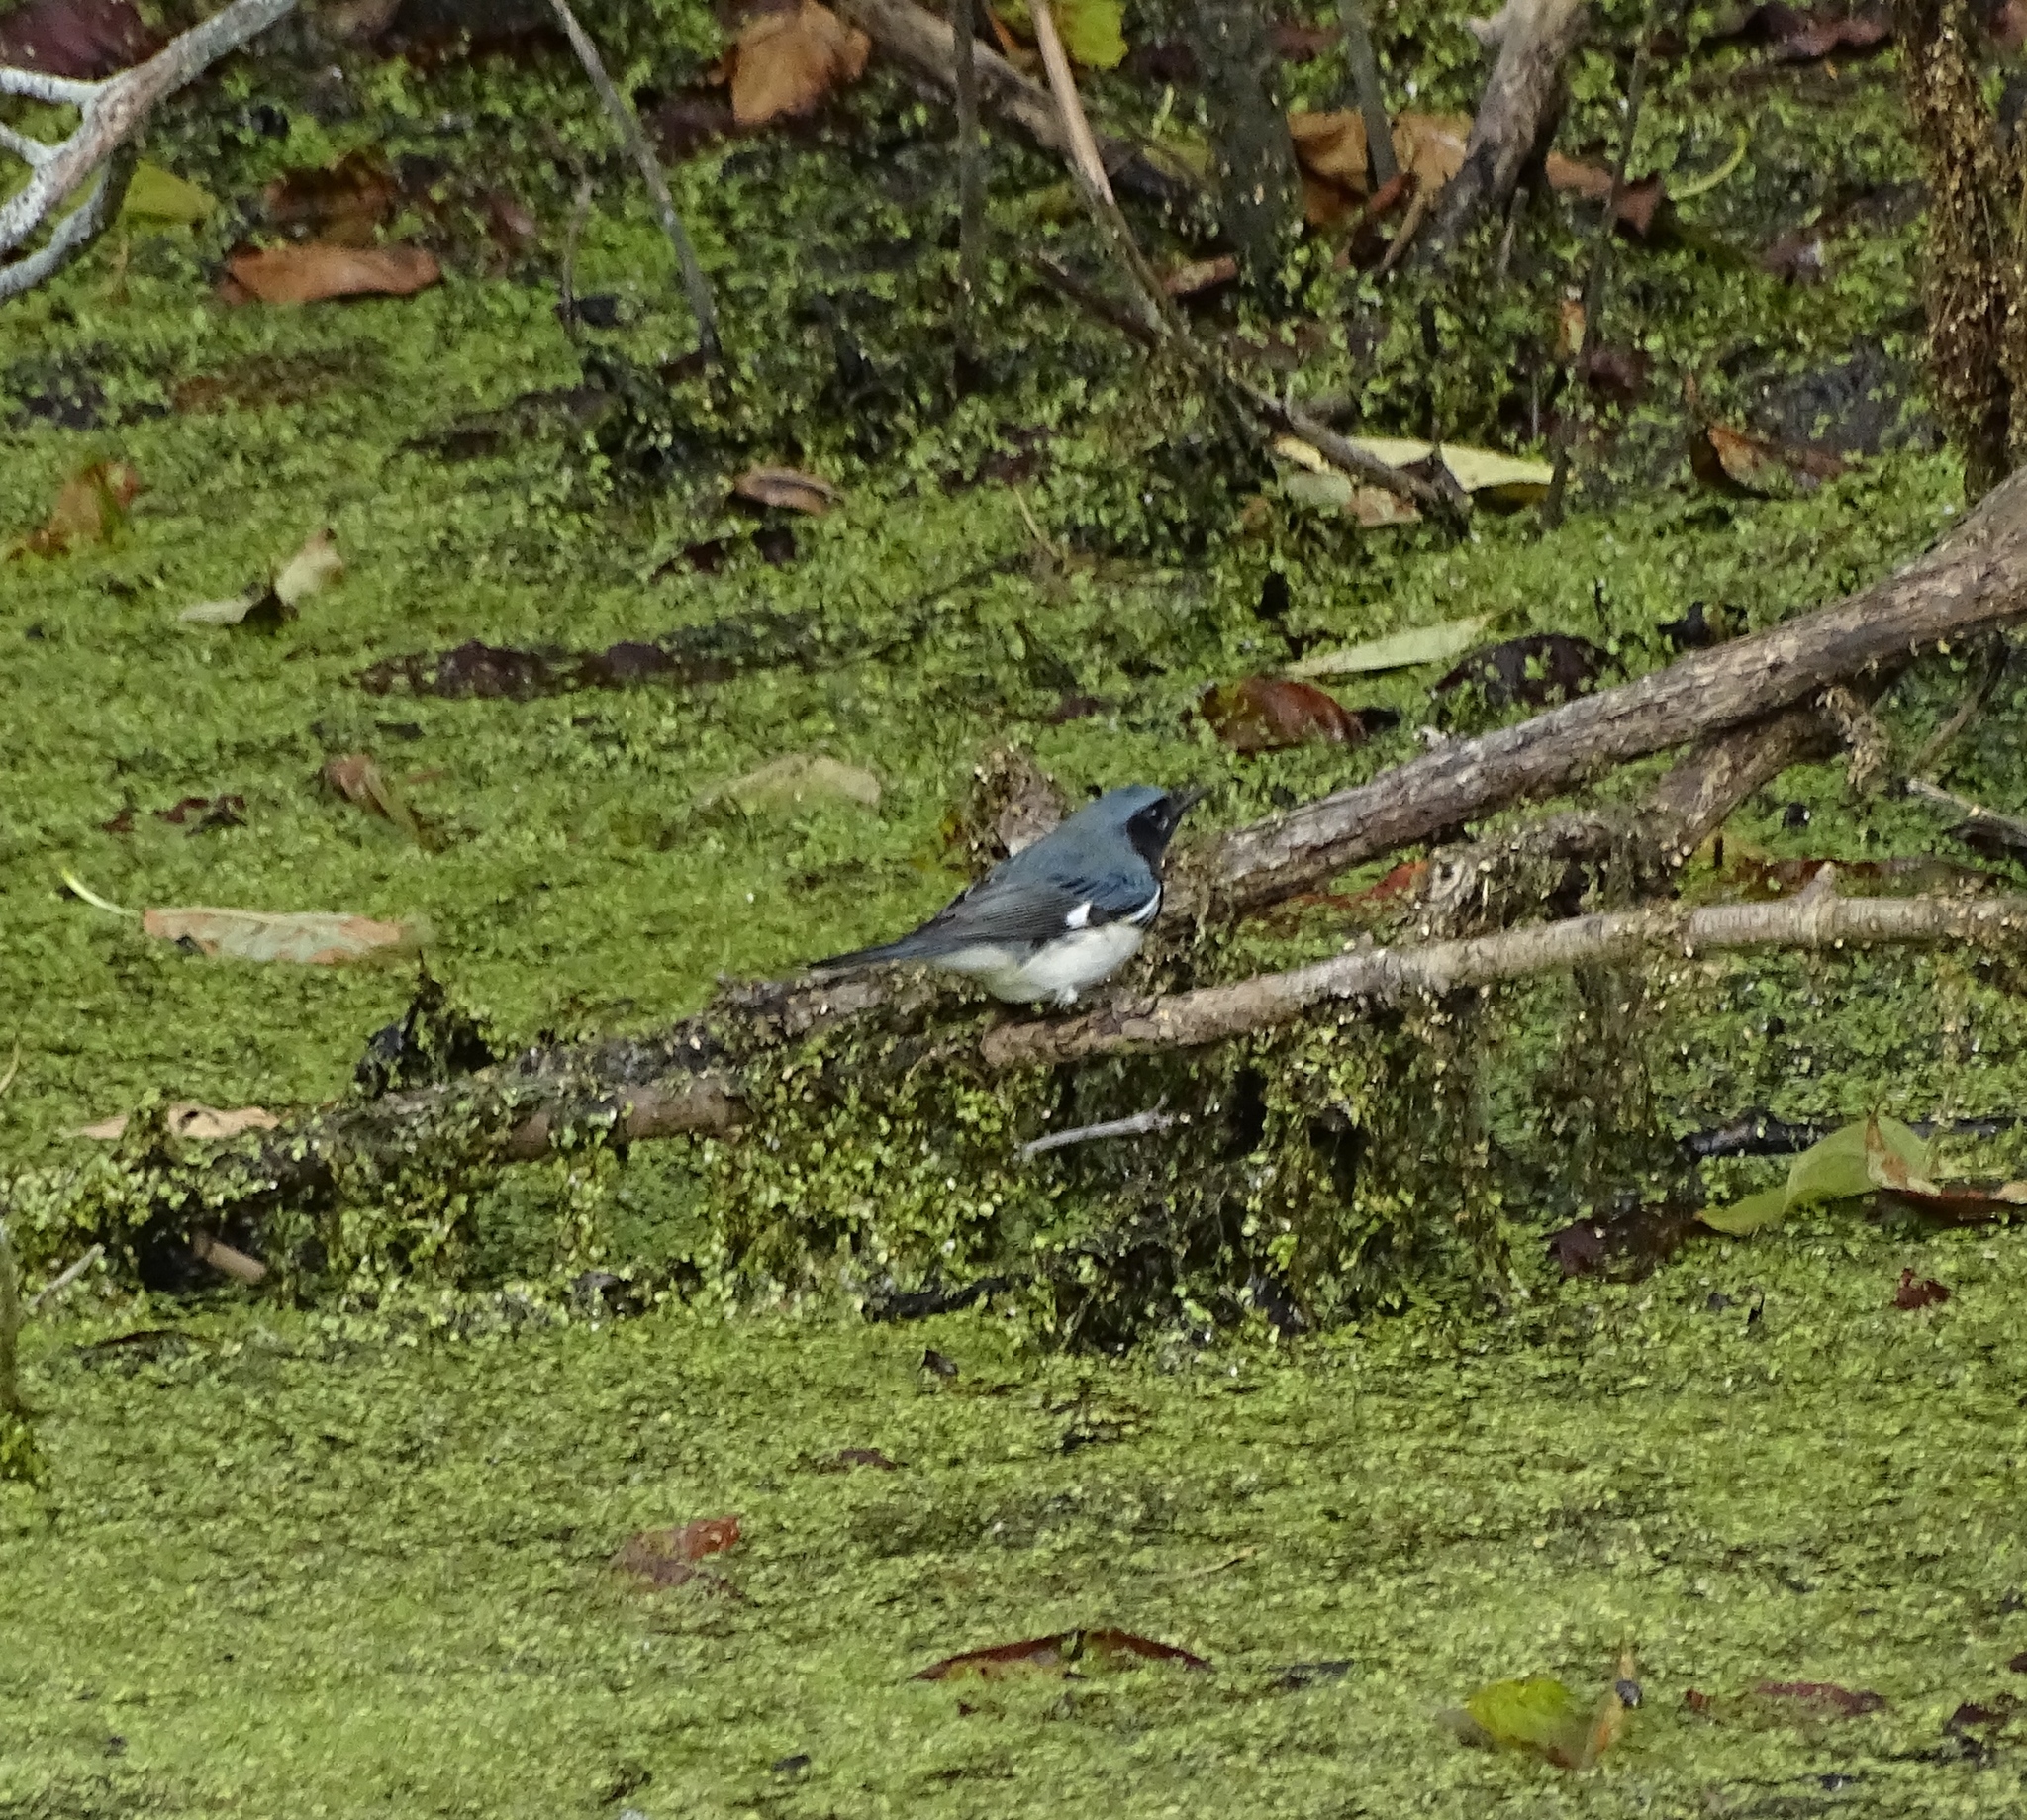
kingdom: Animalia
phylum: Chordata
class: Aves
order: Passeriformes
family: Parulidae
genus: Setophaga
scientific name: Setophaga caerulescens
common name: Black-throated blue warbler
